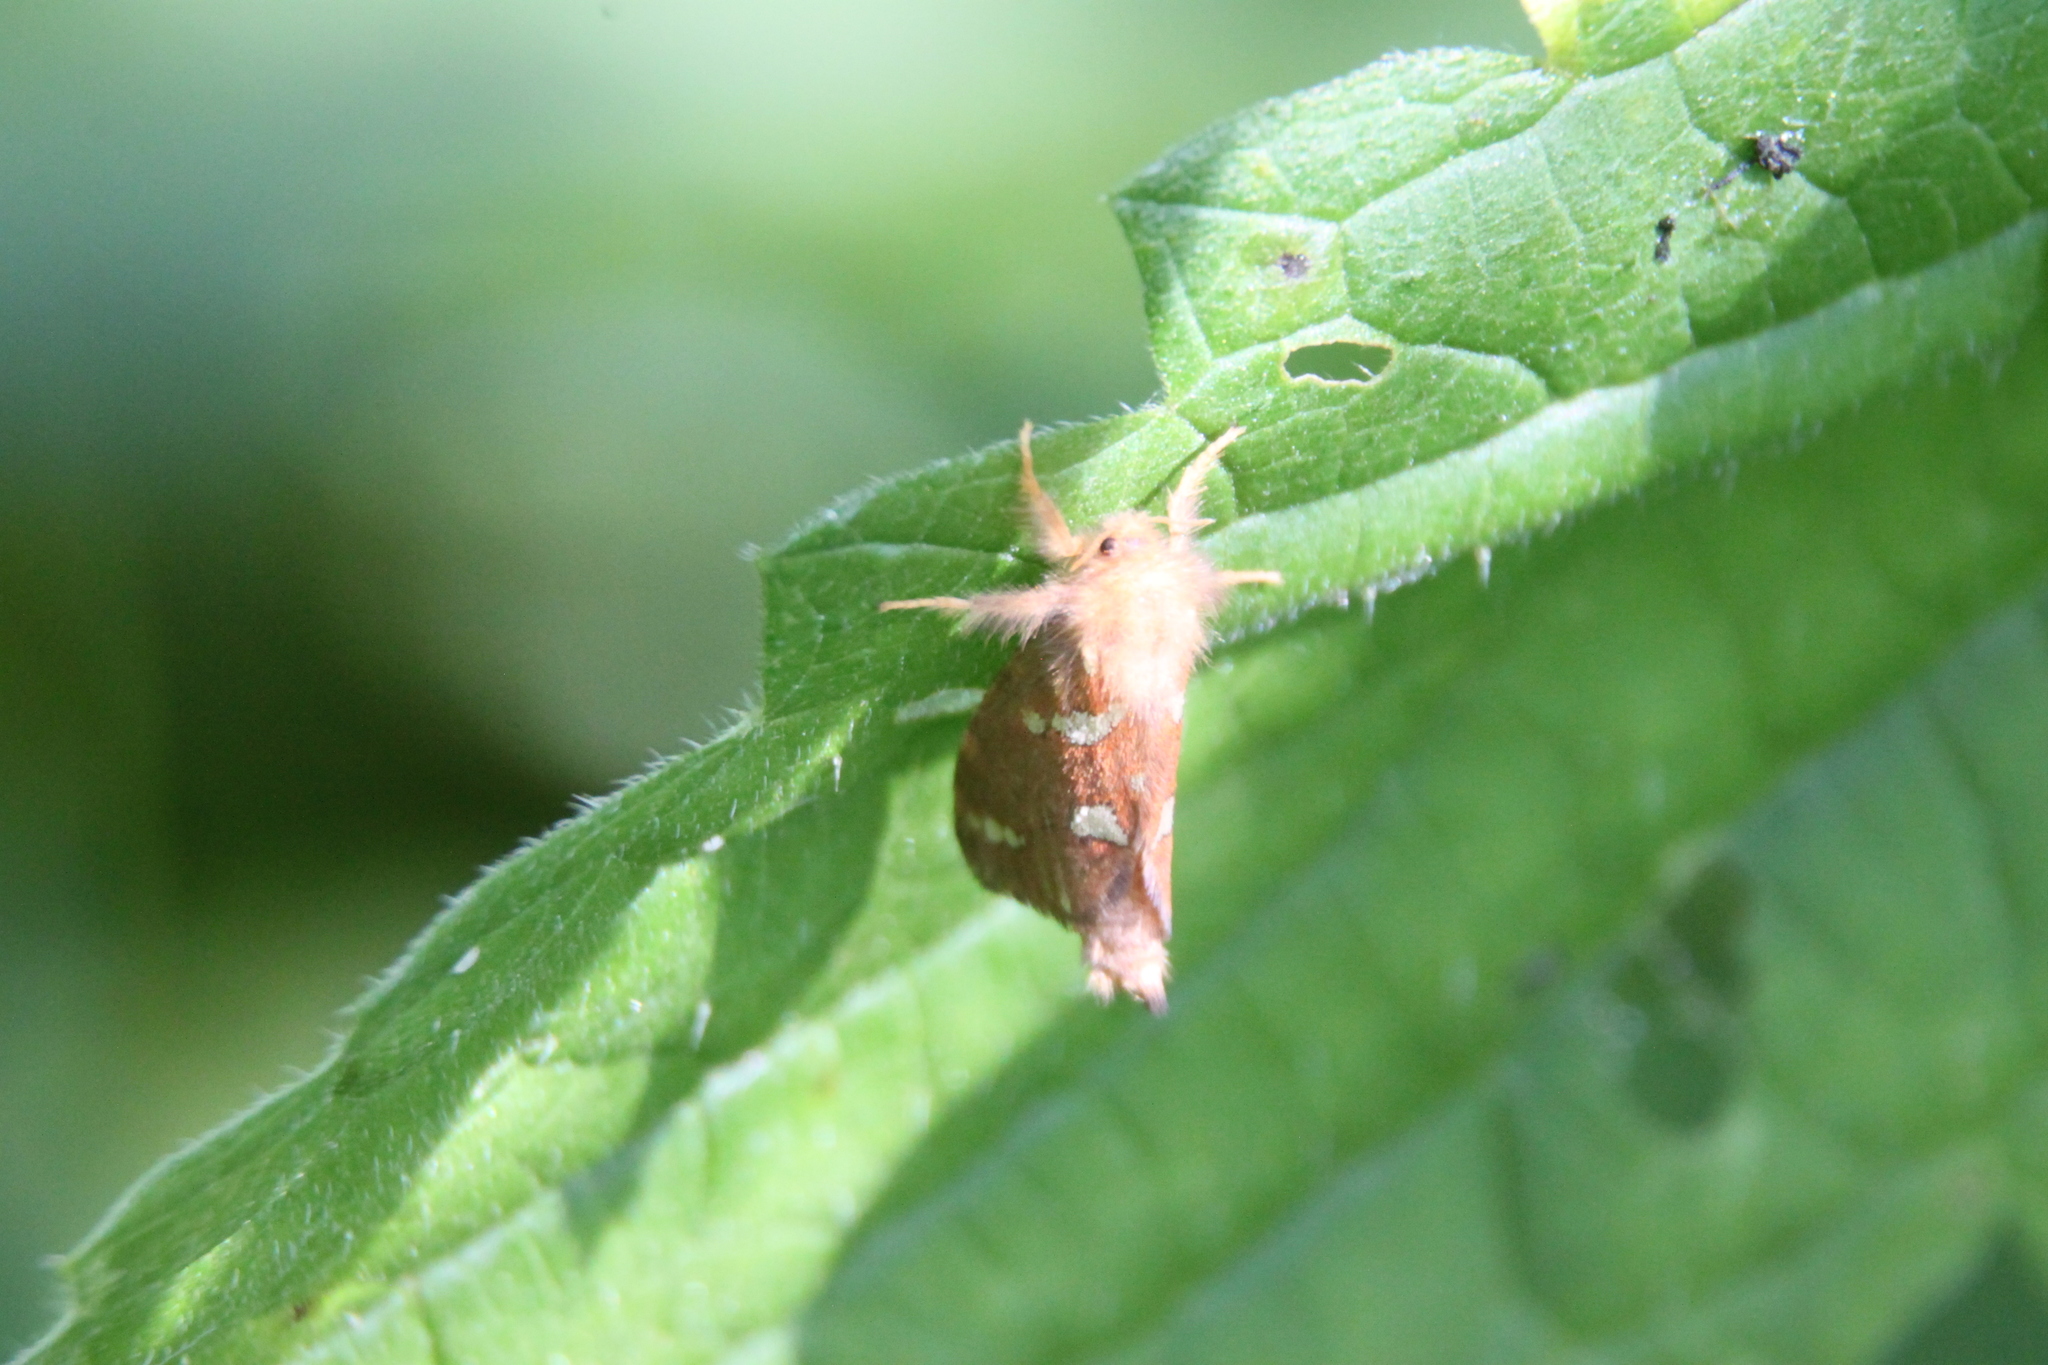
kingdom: Animalia
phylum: Arthropoda
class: Insecta
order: Lepidoptera
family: Hepialidae
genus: Phymatopus
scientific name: Phymatopus hecta
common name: Gold swift
